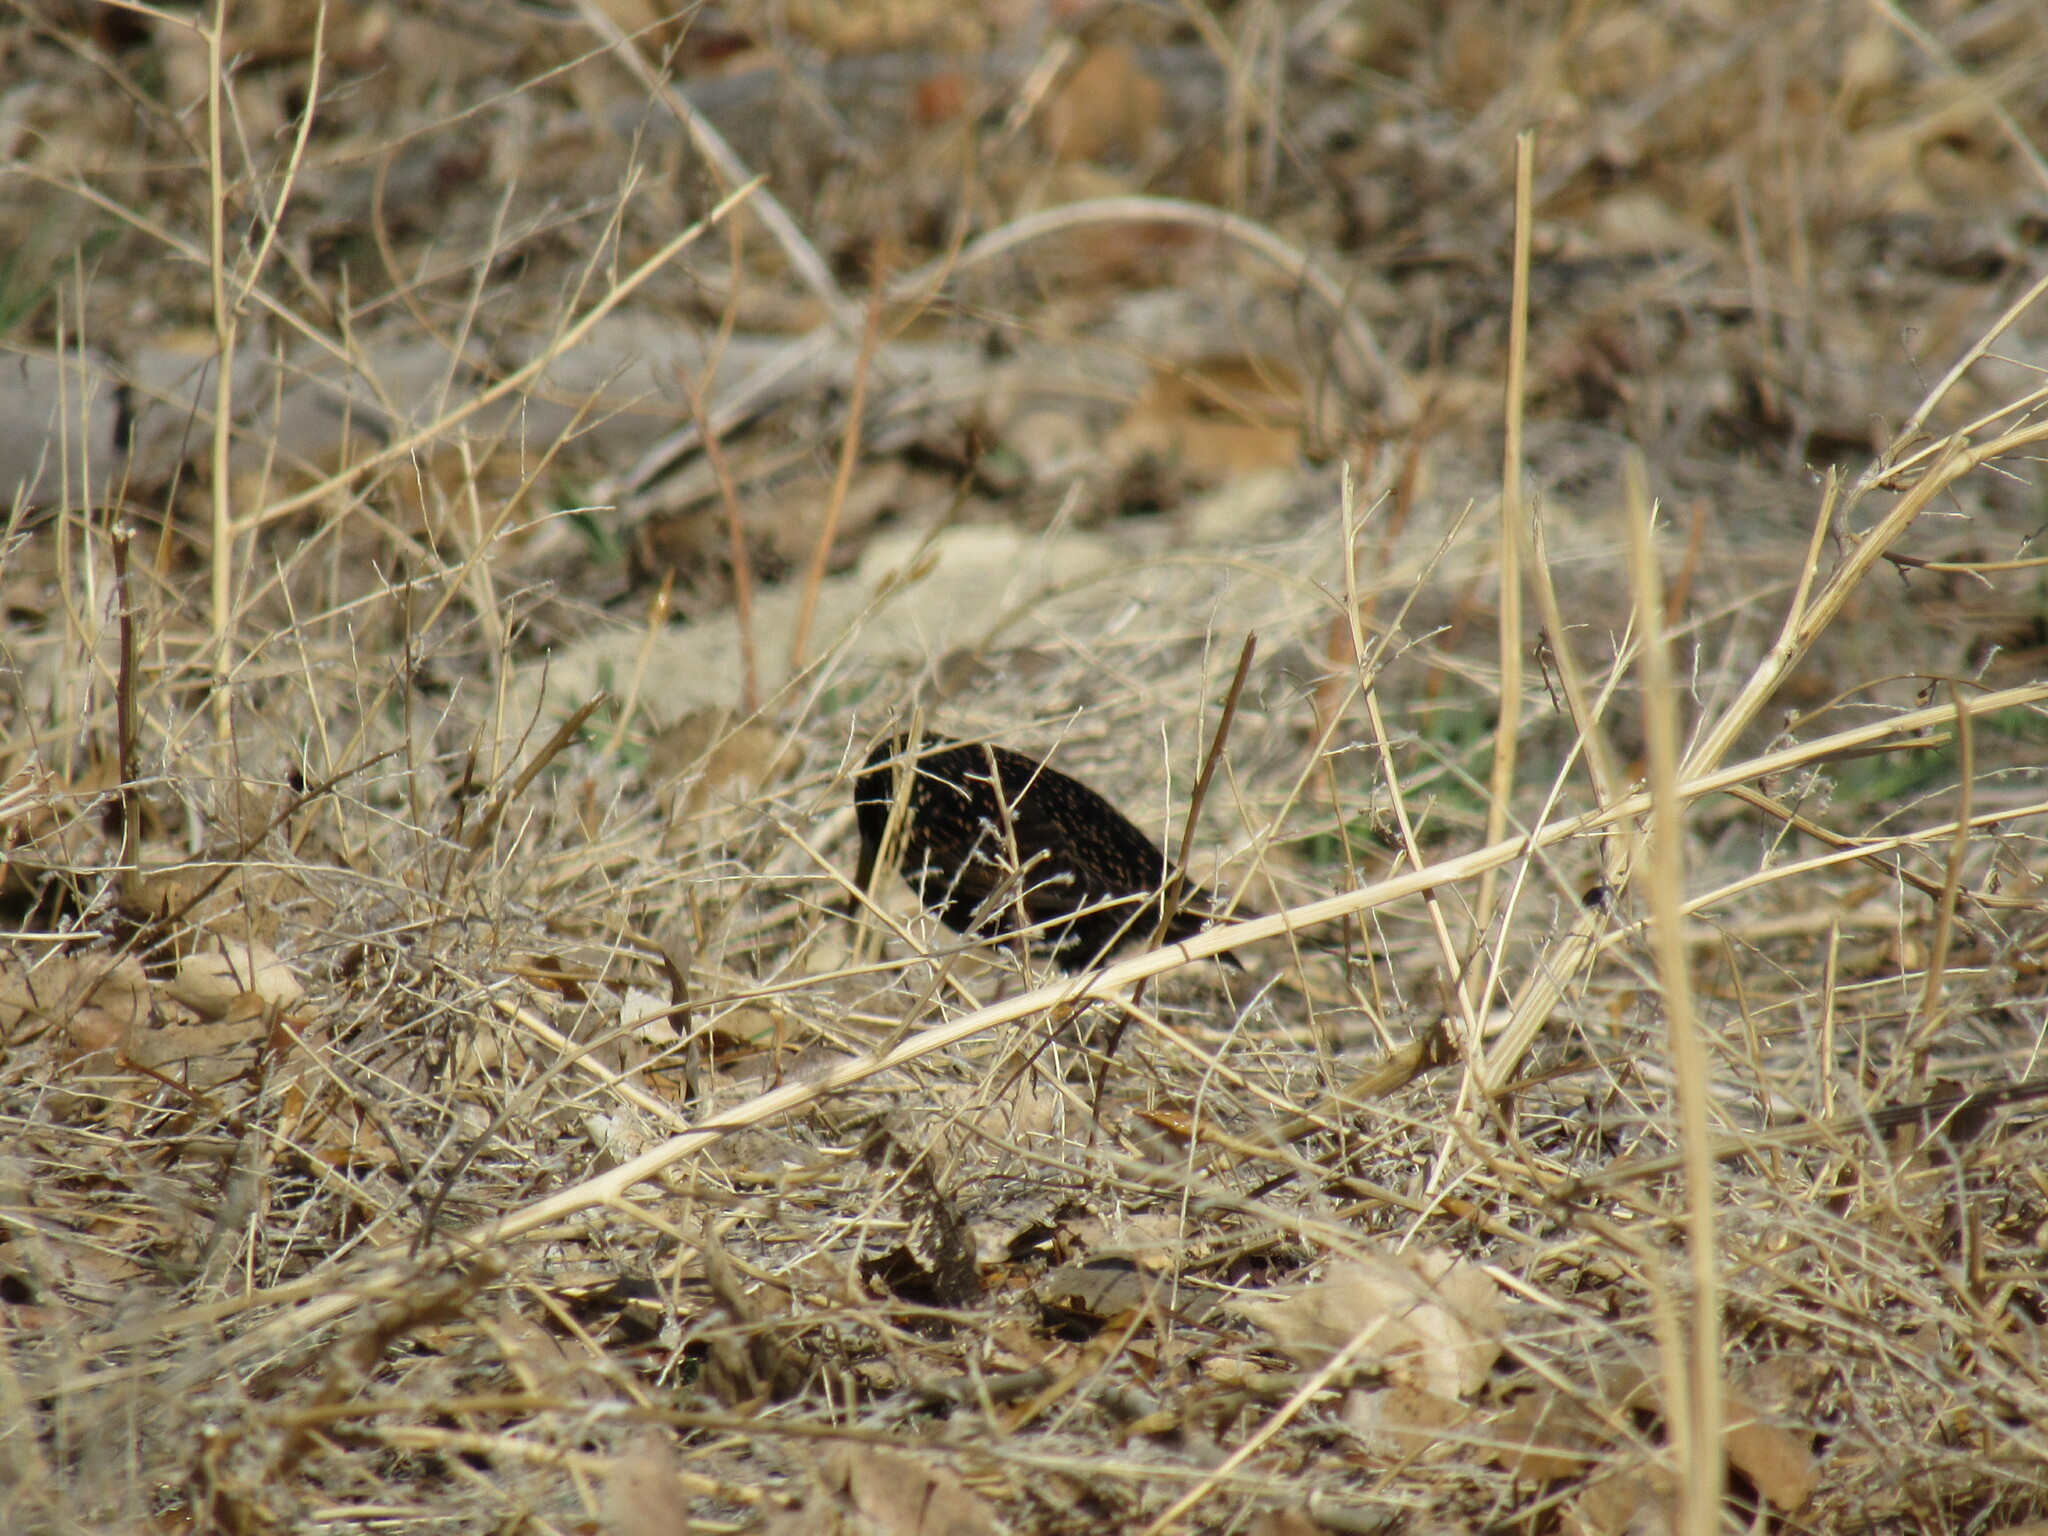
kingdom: Animalia
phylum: Chordata
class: Aves
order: Passeriformes
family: Sturnidae
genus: Sturnus
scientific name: Sturnus vulgaris
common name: Common starling
